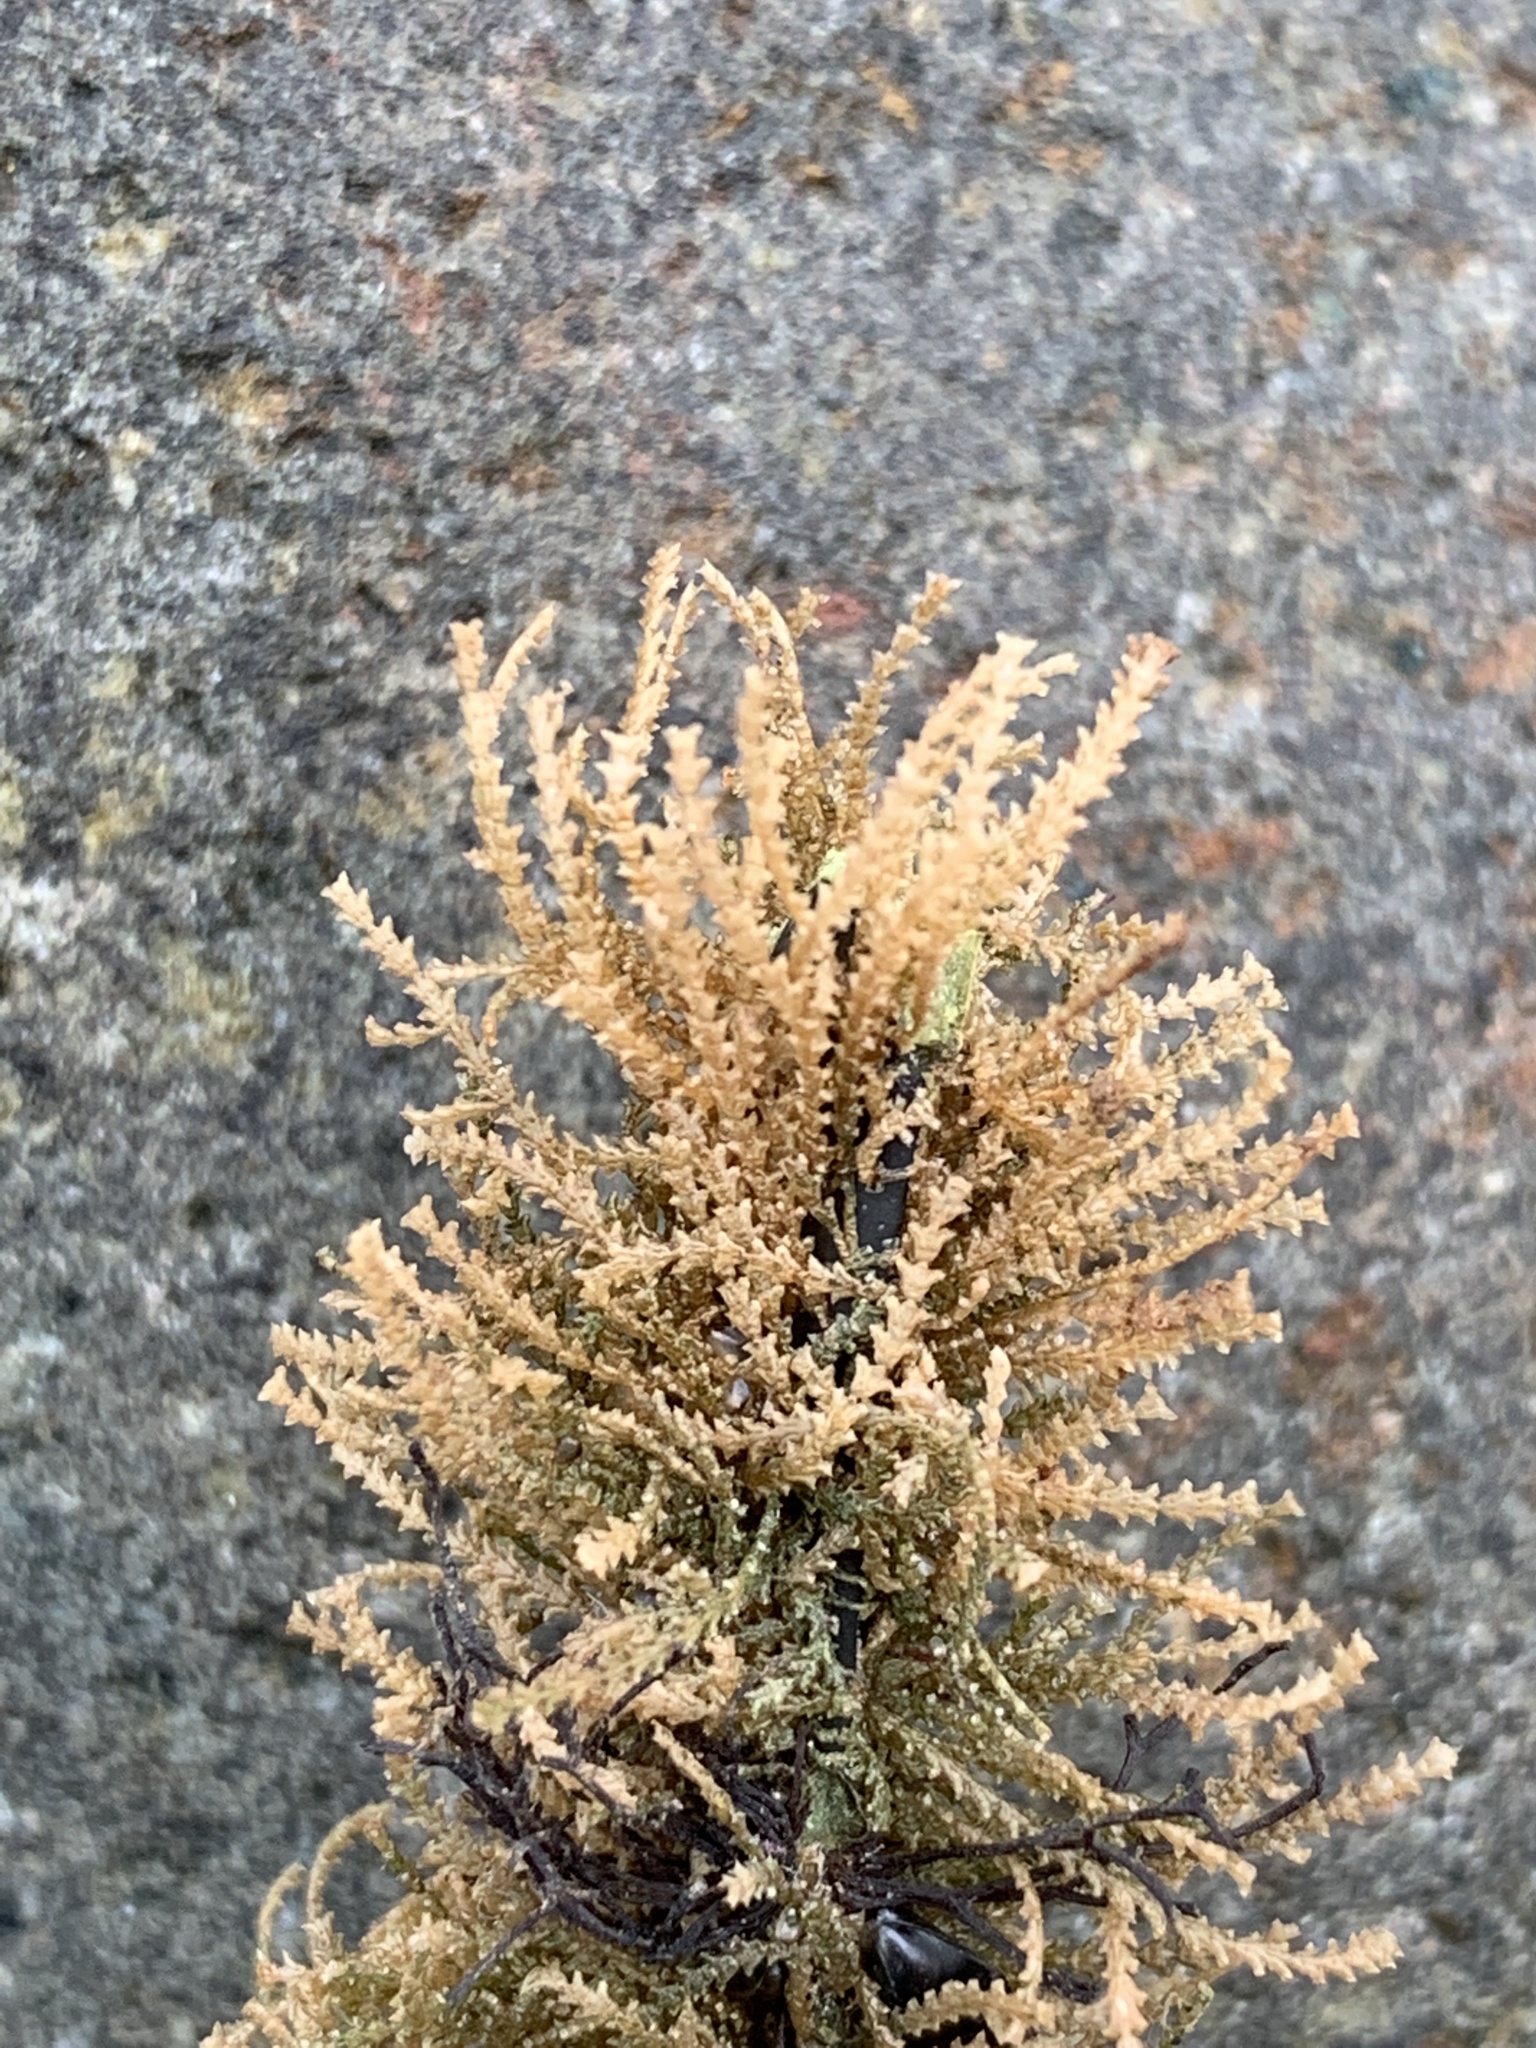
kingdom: Animalia
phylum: Cnidaria
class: Hydrozoa
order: Leptothecata
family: Sertulariidae
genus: Dynamena
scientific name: Dynamena pumila
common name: Sea oak
